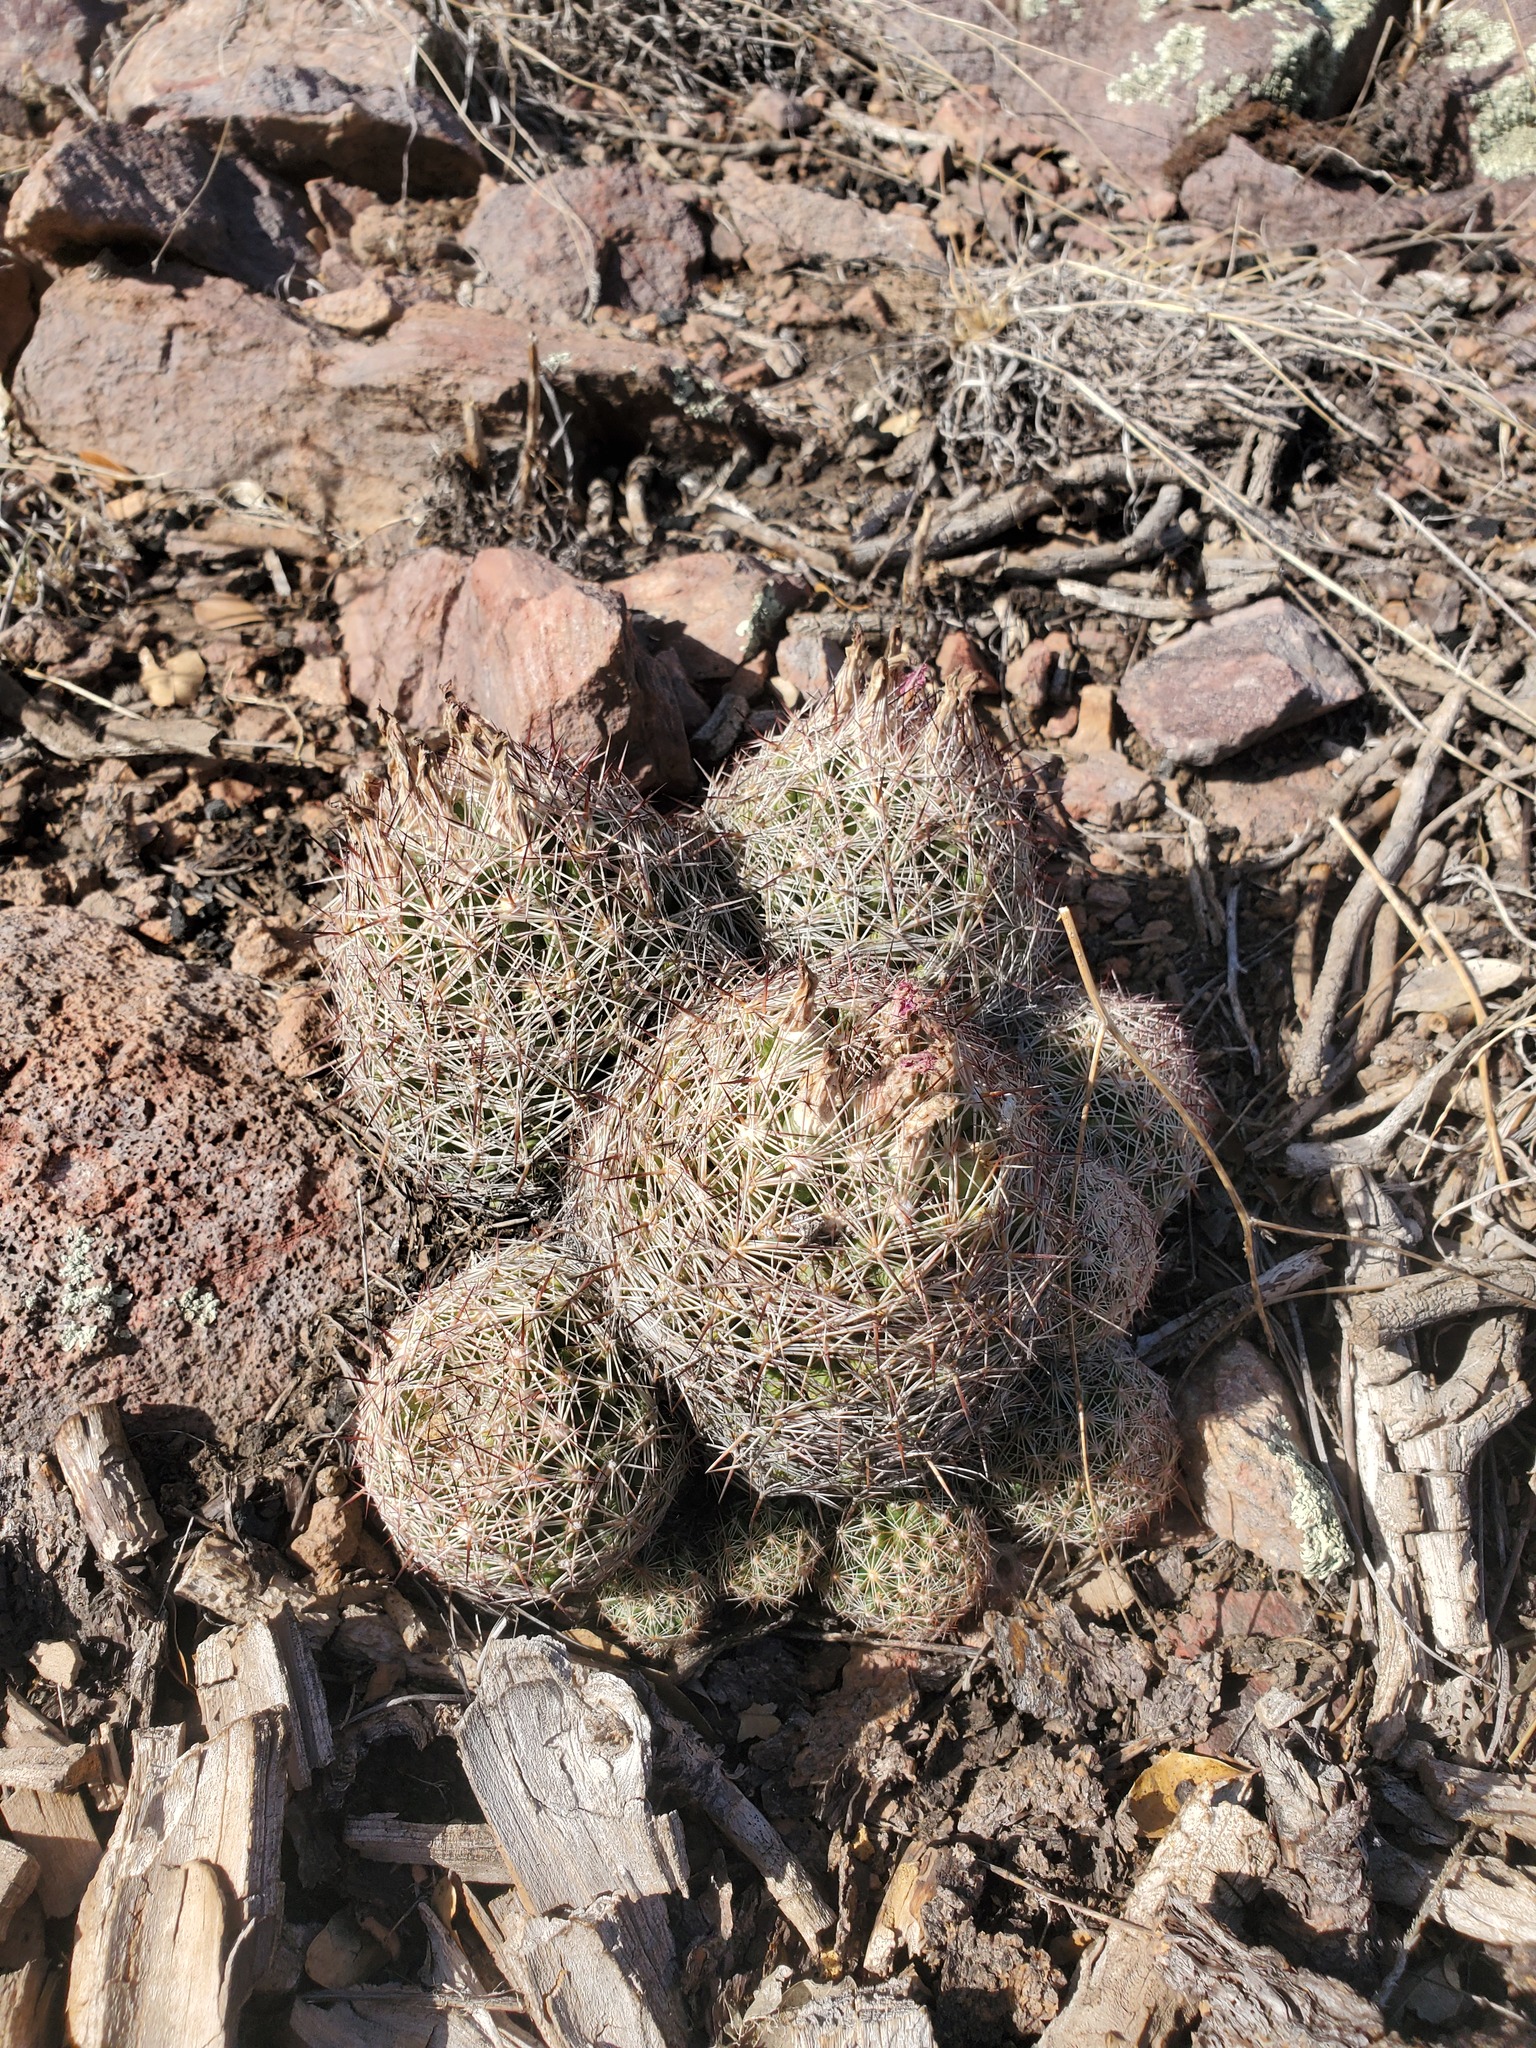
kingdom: Plantae
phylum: Tracheophyta
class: Magnoliopsida
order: Caryophyllales
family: Cactaceae
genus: Pelecyphora
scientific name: Pelecyphora vivipara
